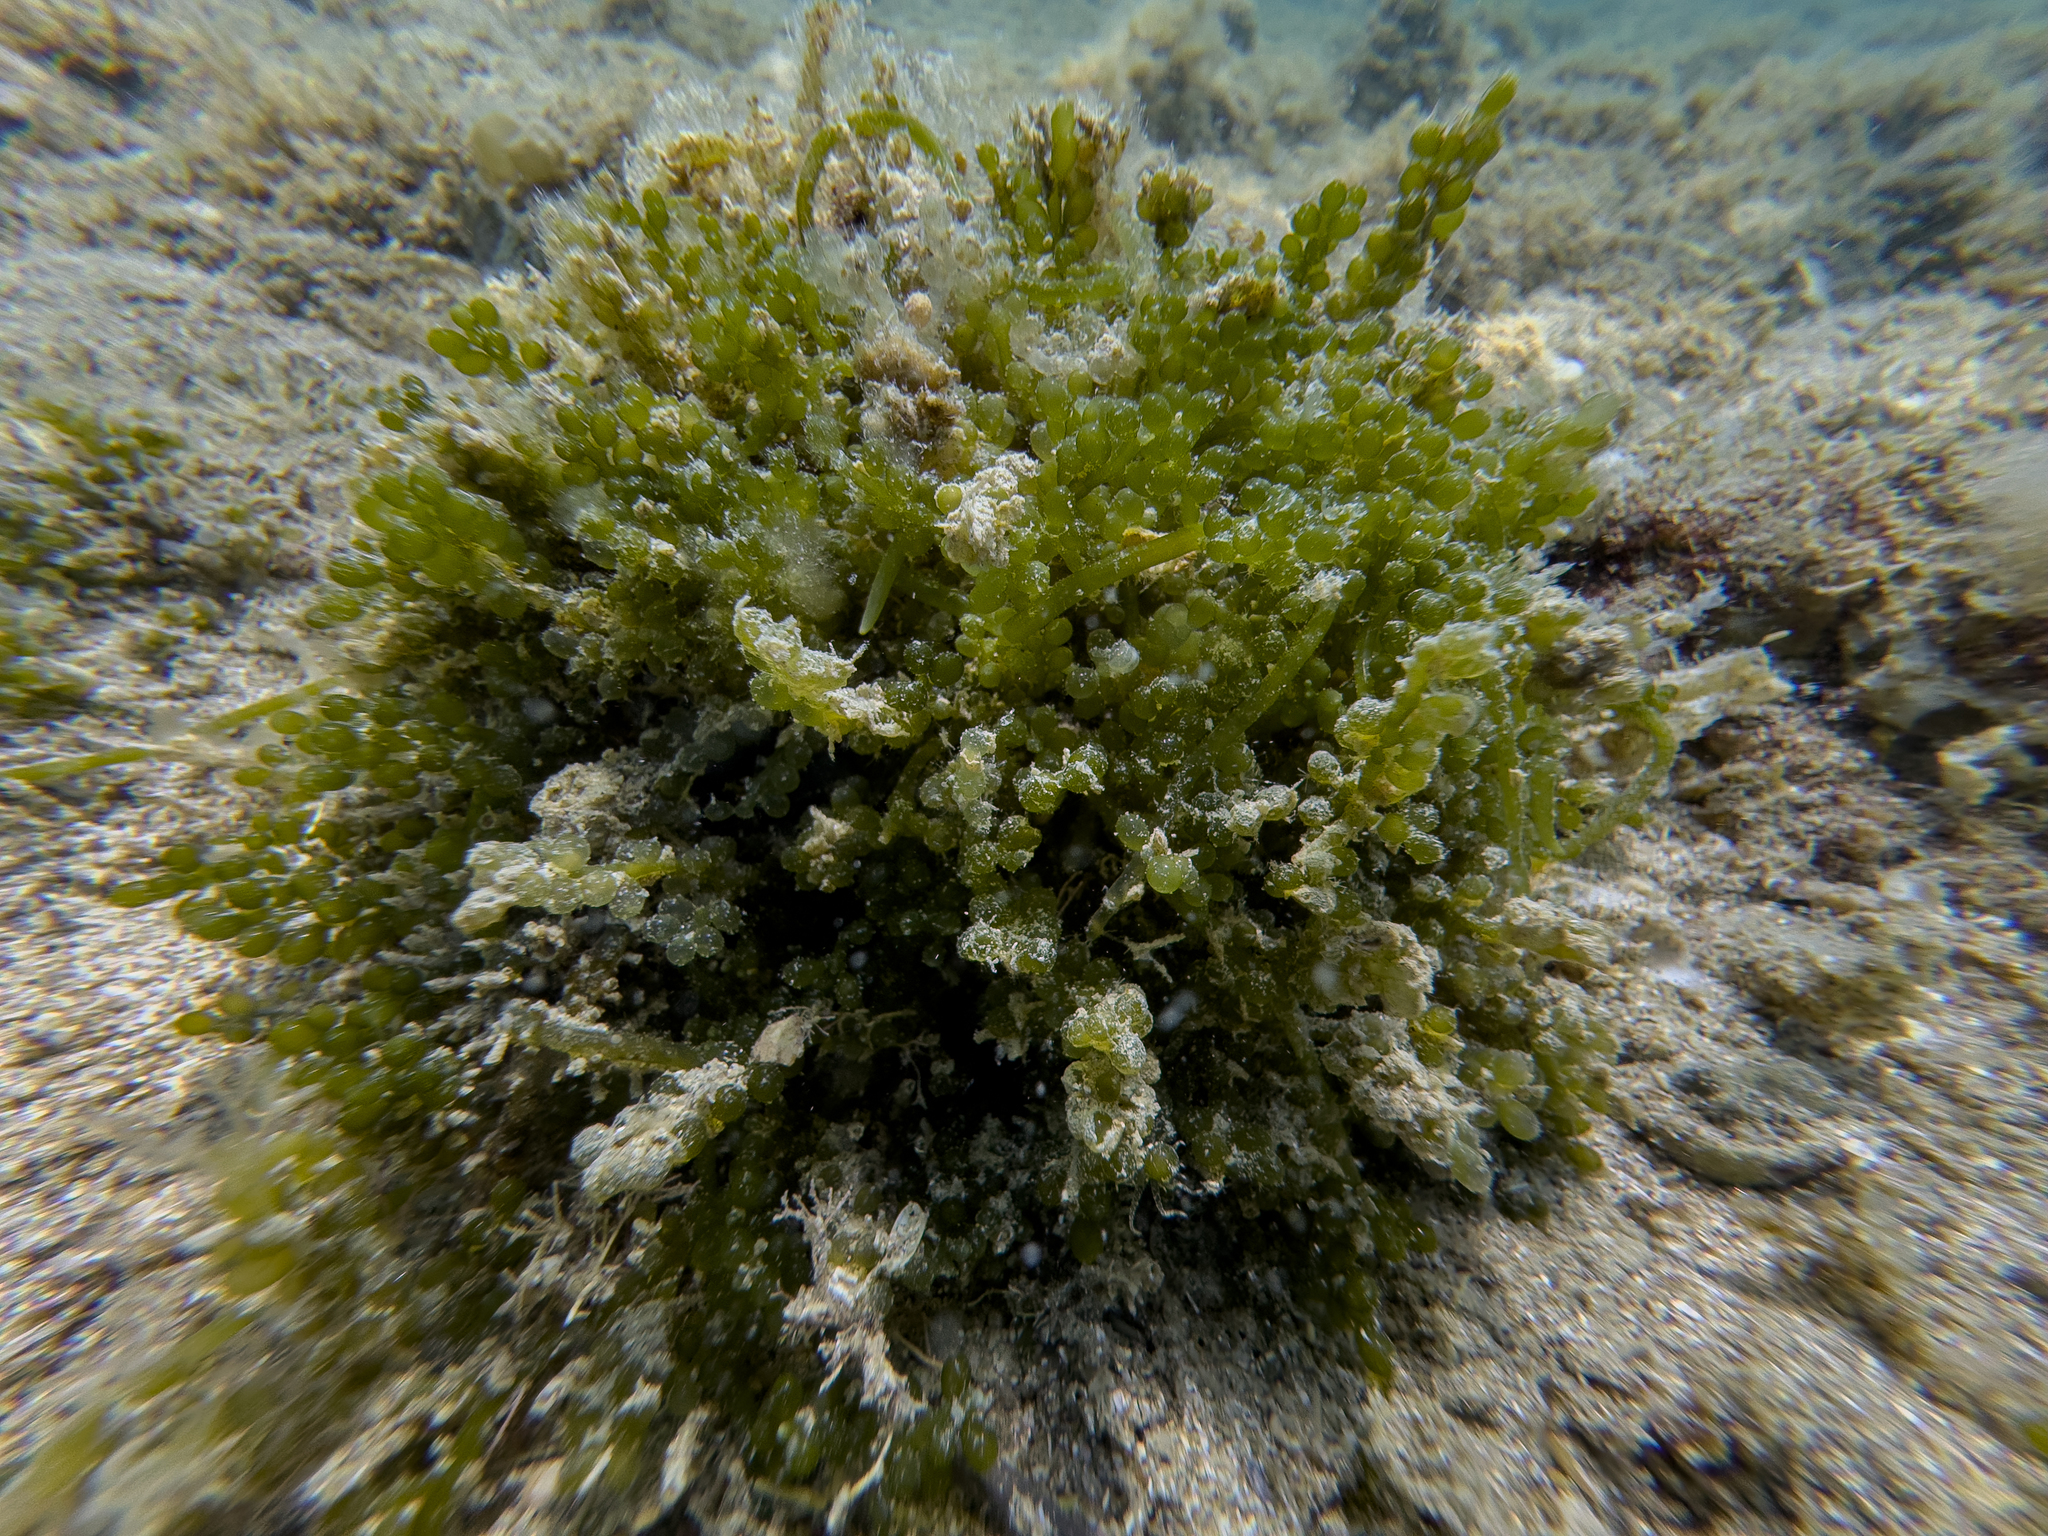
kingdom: Plantae
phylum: Chlorophyta
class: Ulvophyceae
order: Bryopsidales
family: Caulerpaceae
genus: Caulerpa
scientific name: Caulerpa geminata
